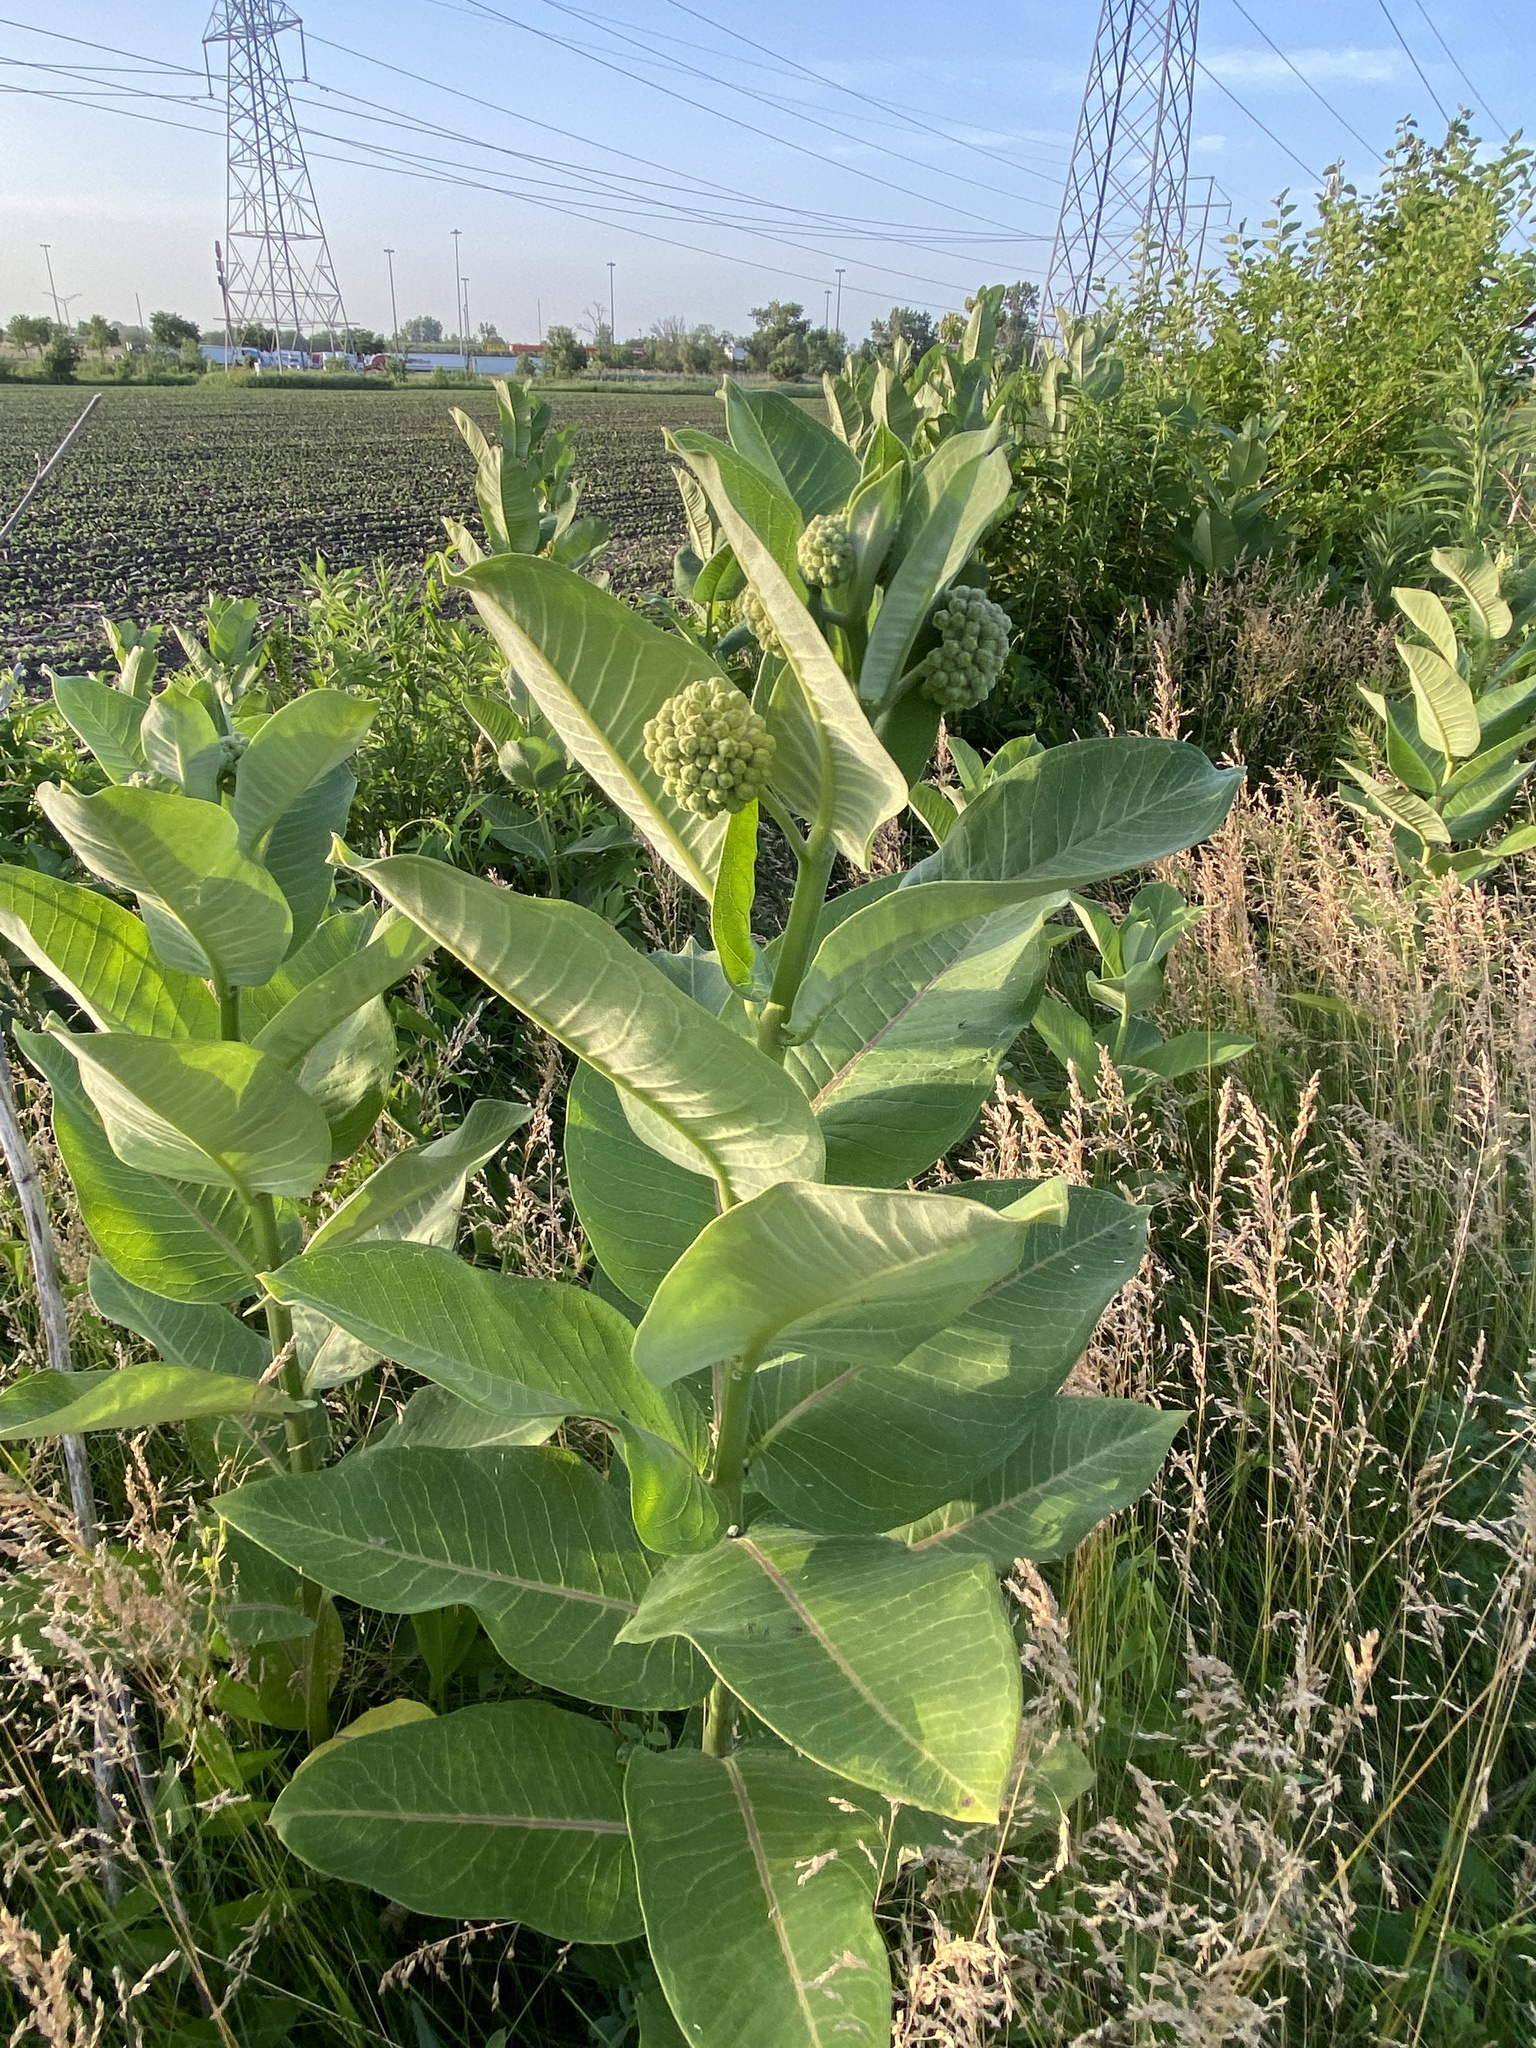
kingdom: Plantae
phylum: Tracheophyta
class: Magnoliopsida
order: Gentianales
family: Apocynaceae
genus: Asclepias
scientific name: Asclepias syriaca
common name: Common milkweed
